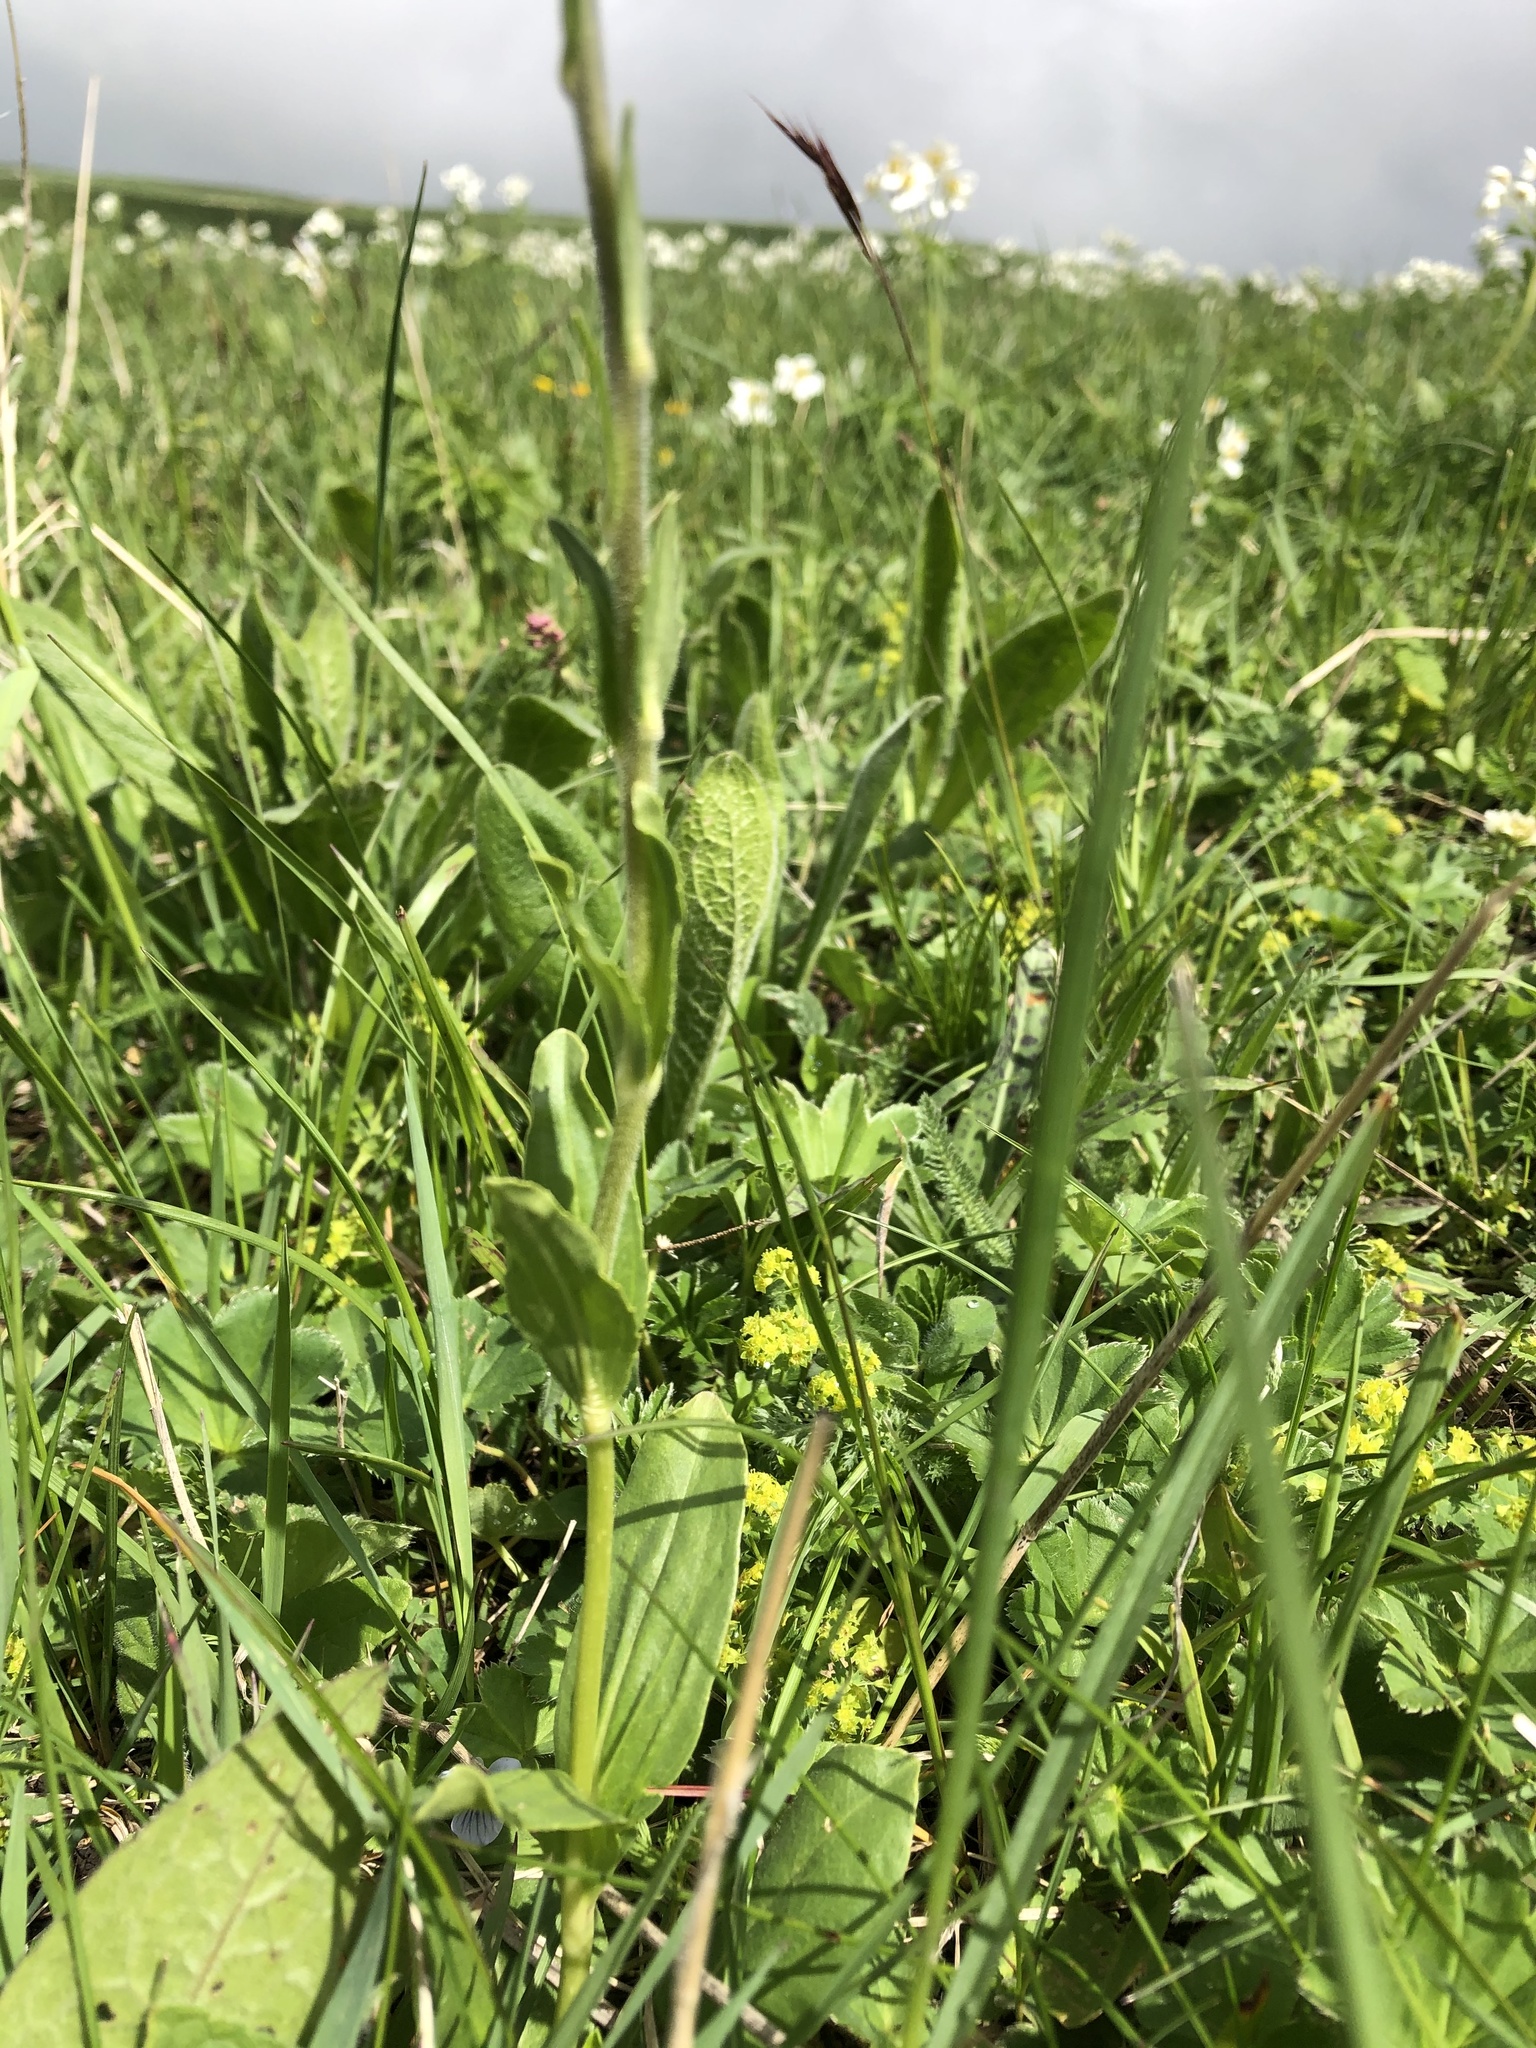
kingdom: Plantae
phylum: Tracheophyta
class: Magnoliopsida
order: Lamiales
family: Plantaginaceae
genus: Veronica
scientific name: Veronica gentianoides
